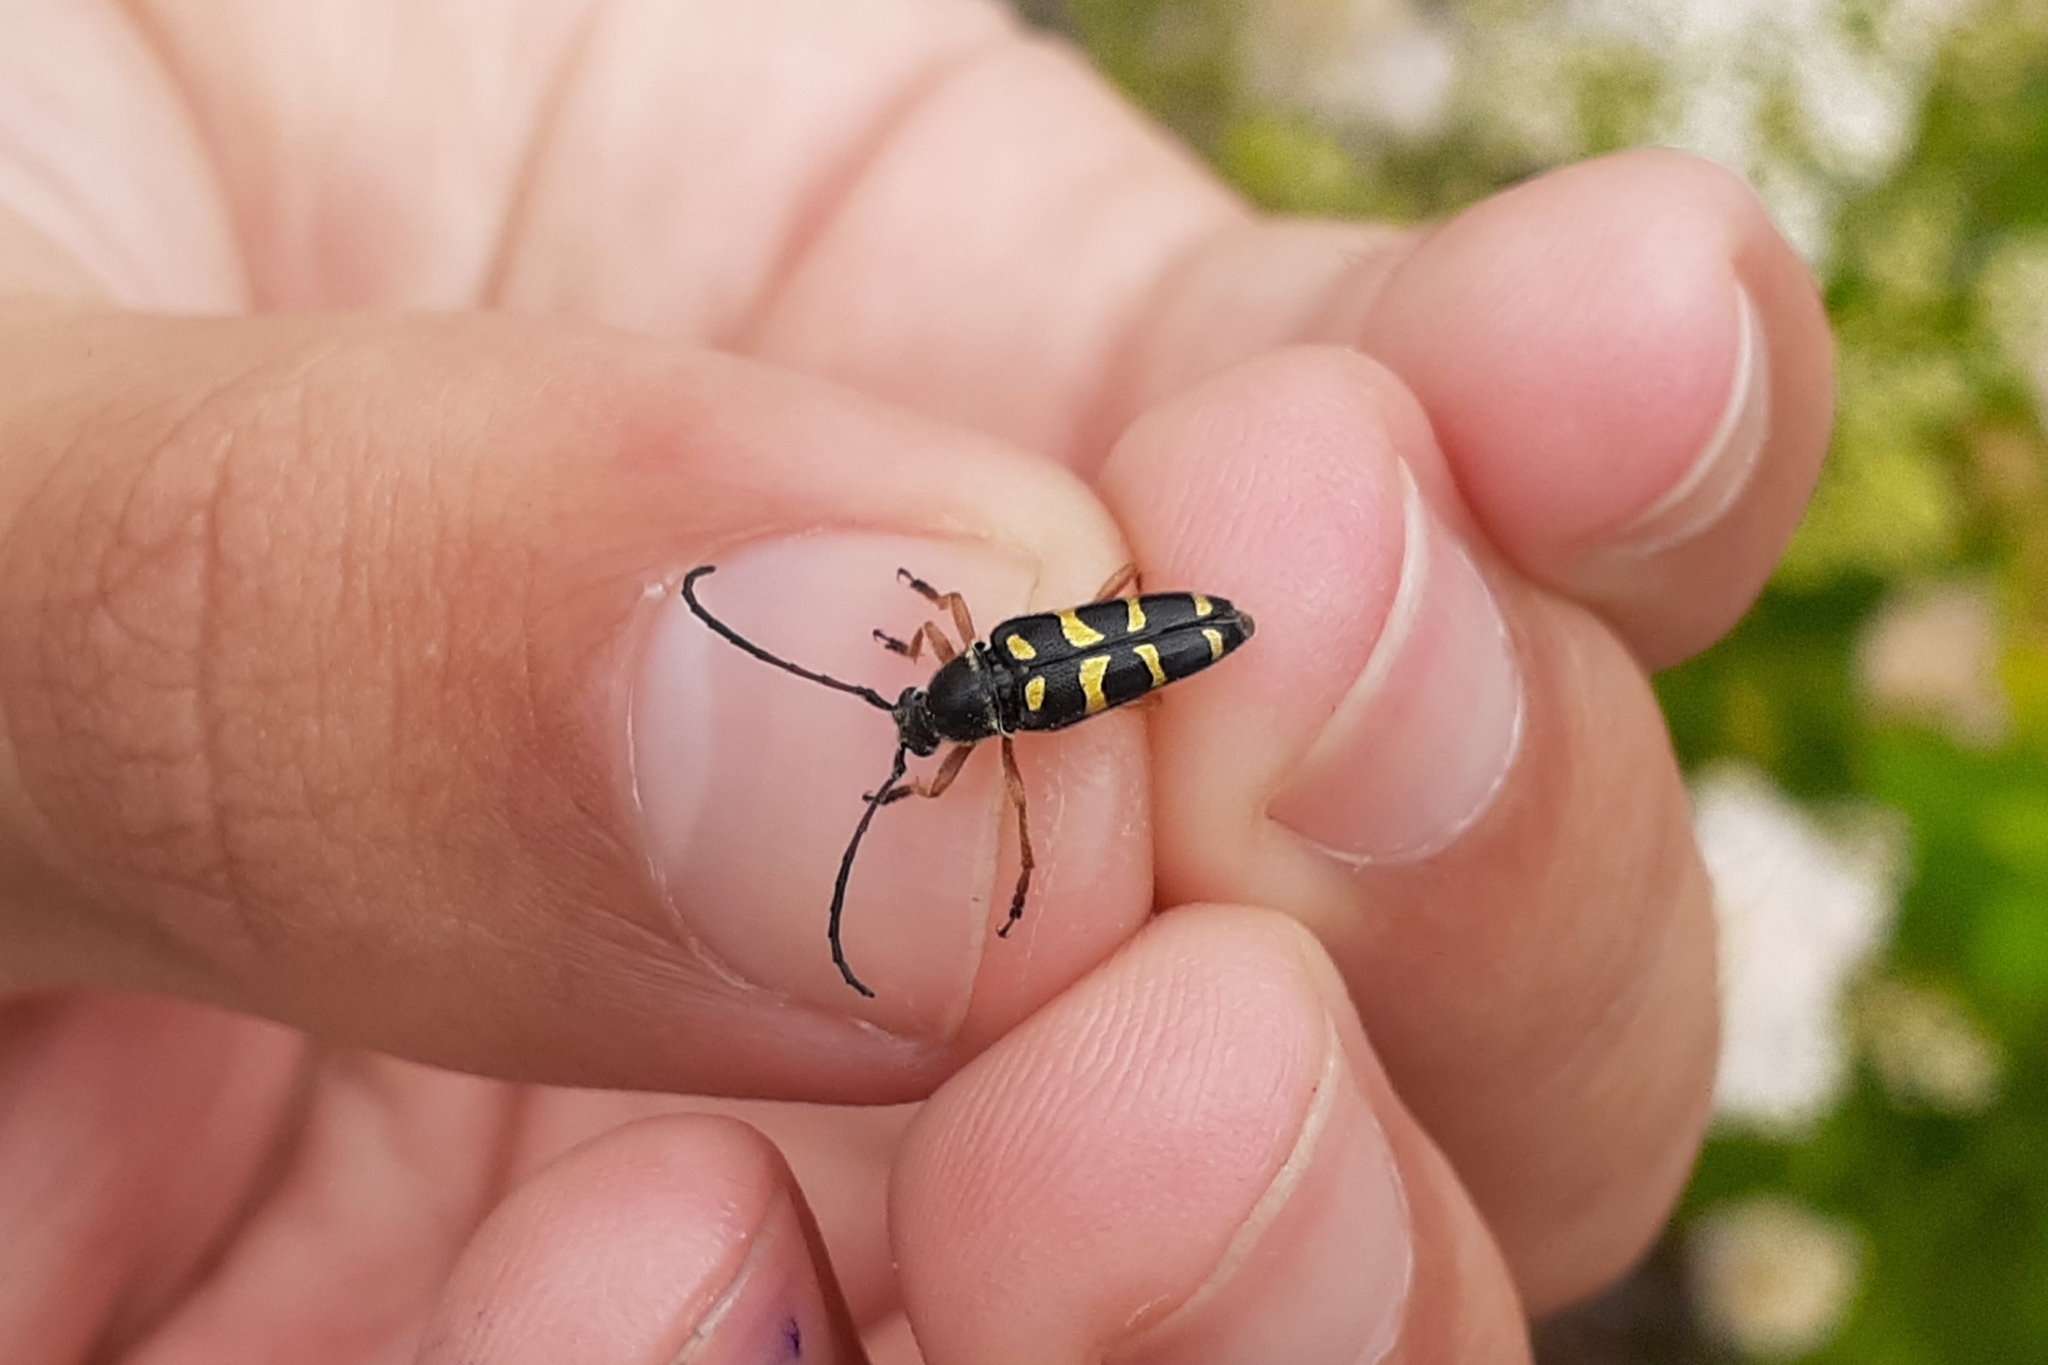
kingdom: Animalia
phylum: Arthropoda
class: Insecta
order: Coleoptera
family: Cerambycidae
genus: Typocerus
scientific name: Typocerus sparsus
